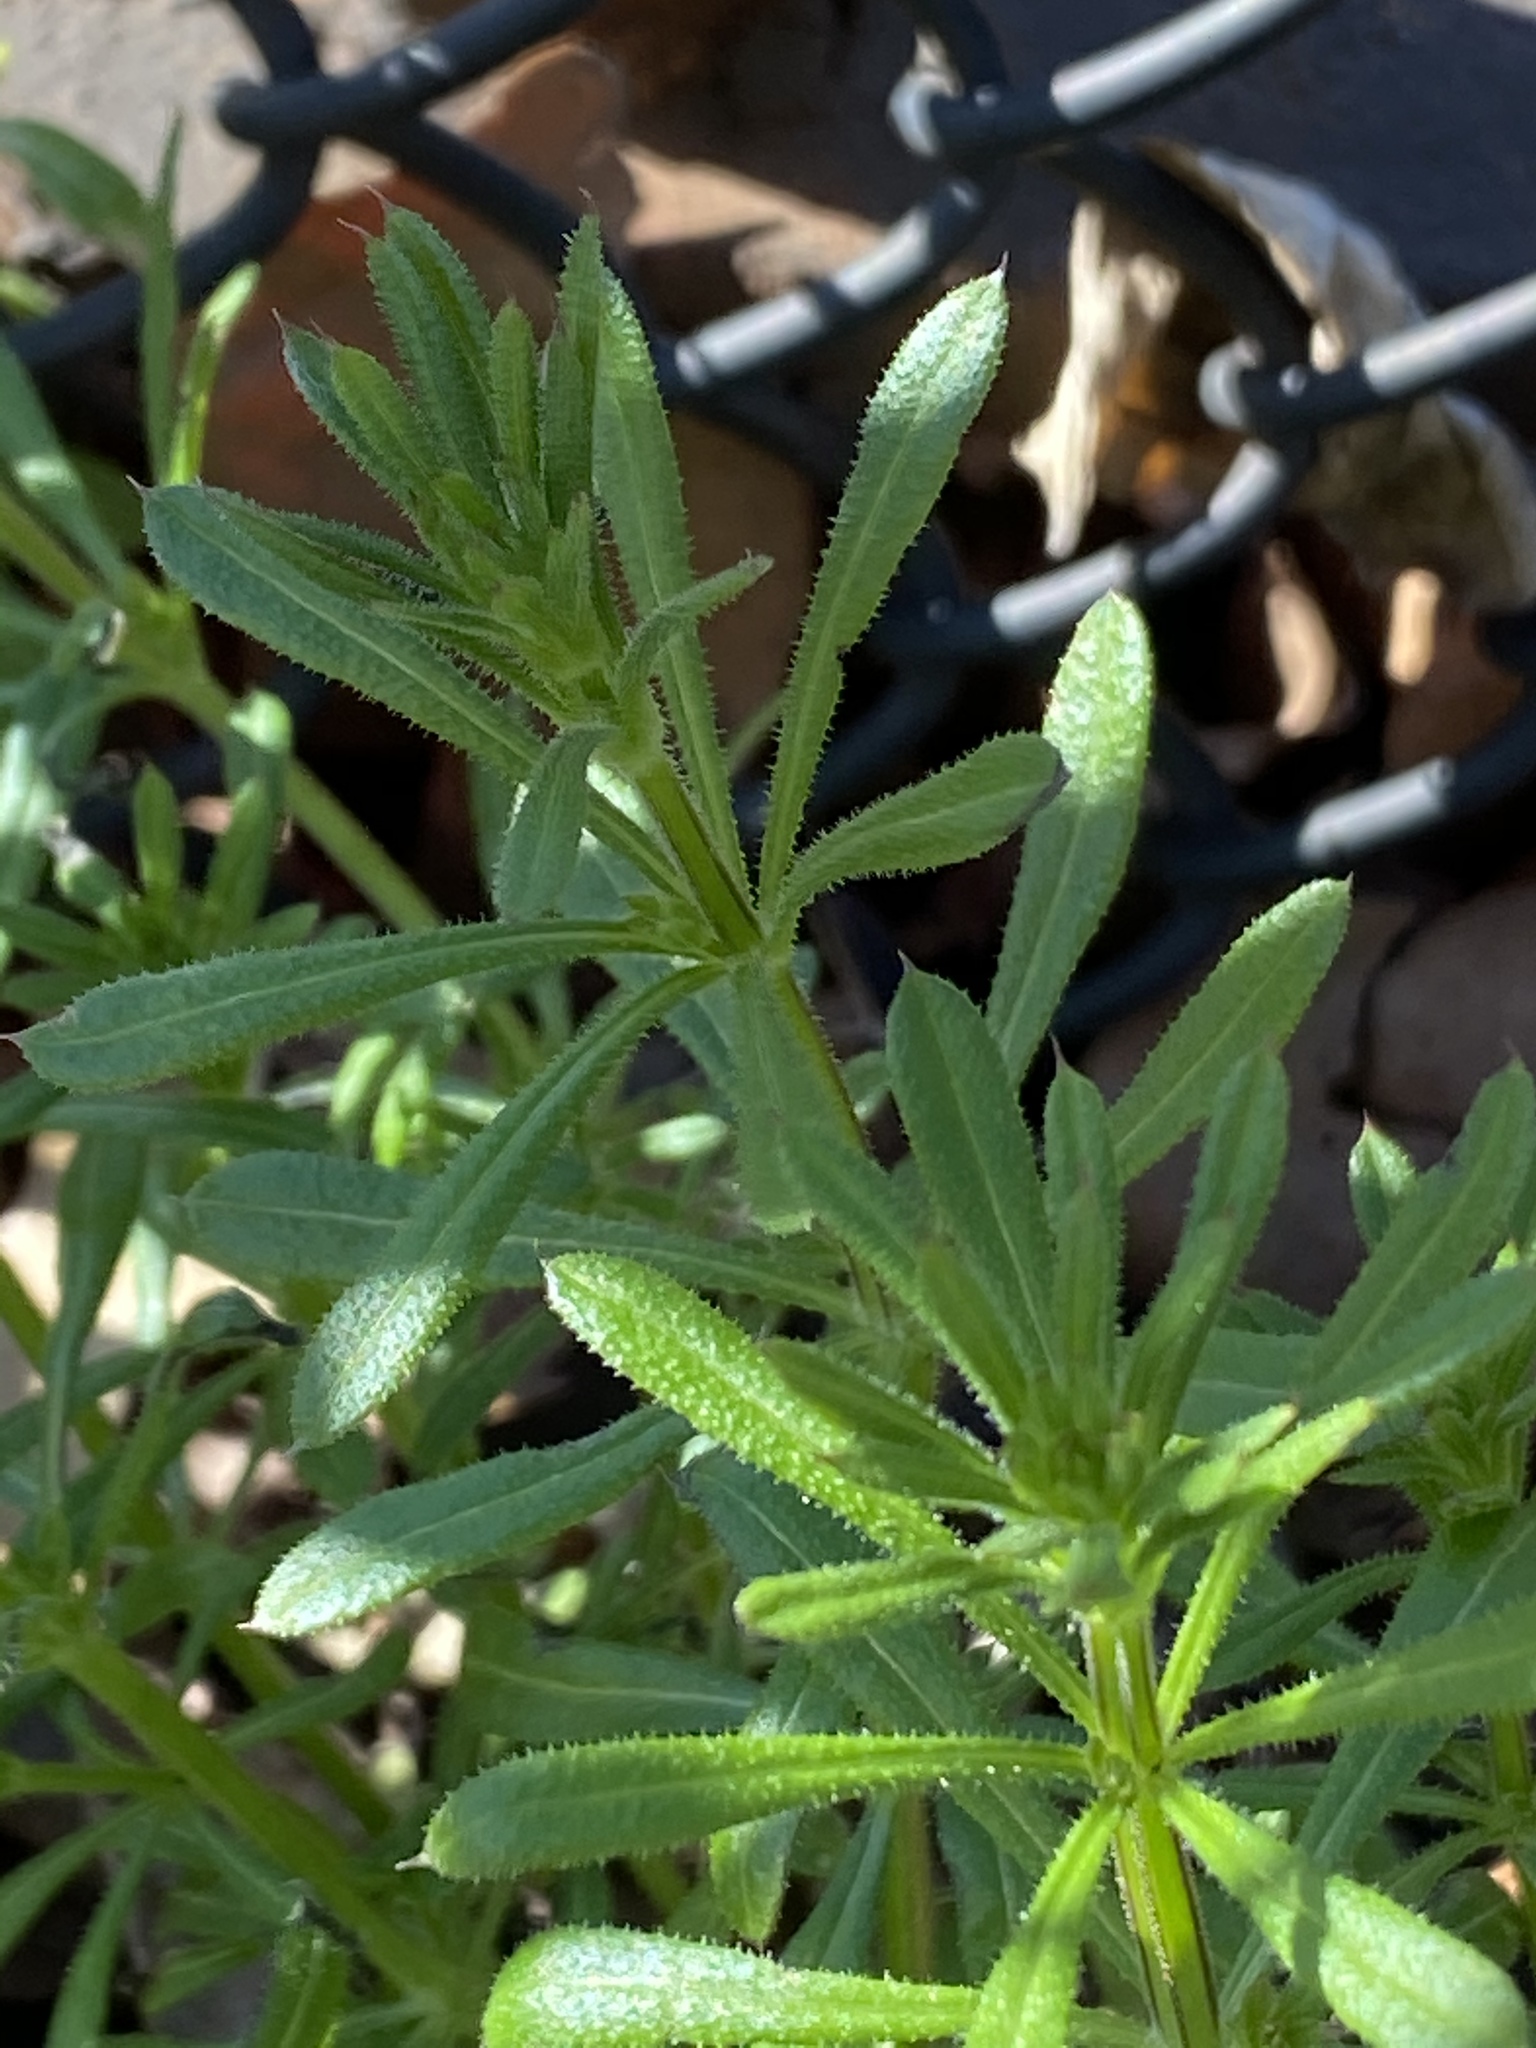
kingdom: Plantae
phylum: Tracheophyta
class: Magnoliopsida
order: Gentianales
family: Rubiaceae
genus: Galium
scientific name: Galium aparine
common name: Cleavers
